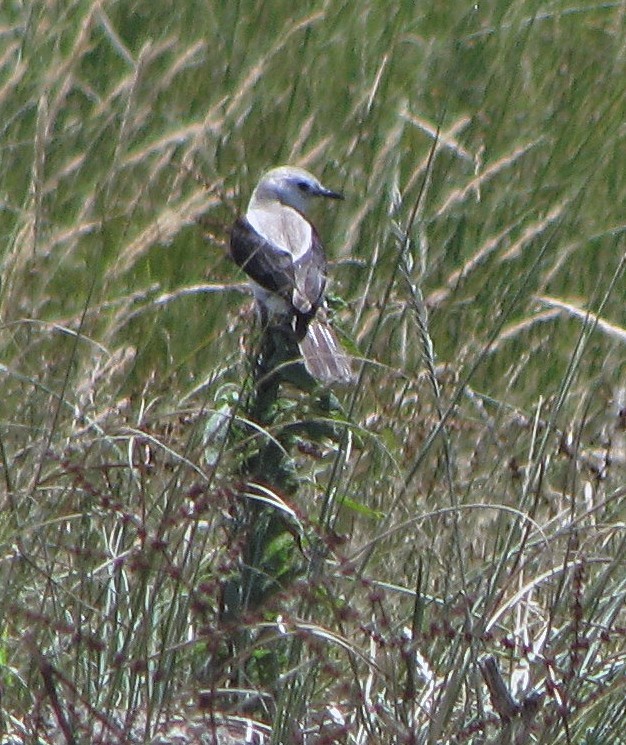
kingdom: Animalia
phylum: Chordata
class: Aves
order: Passeriformes
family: Tyrannidae
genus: Heteroxolmis
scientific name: Heteroxolmis dominicana
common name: Black-and-white monjita
